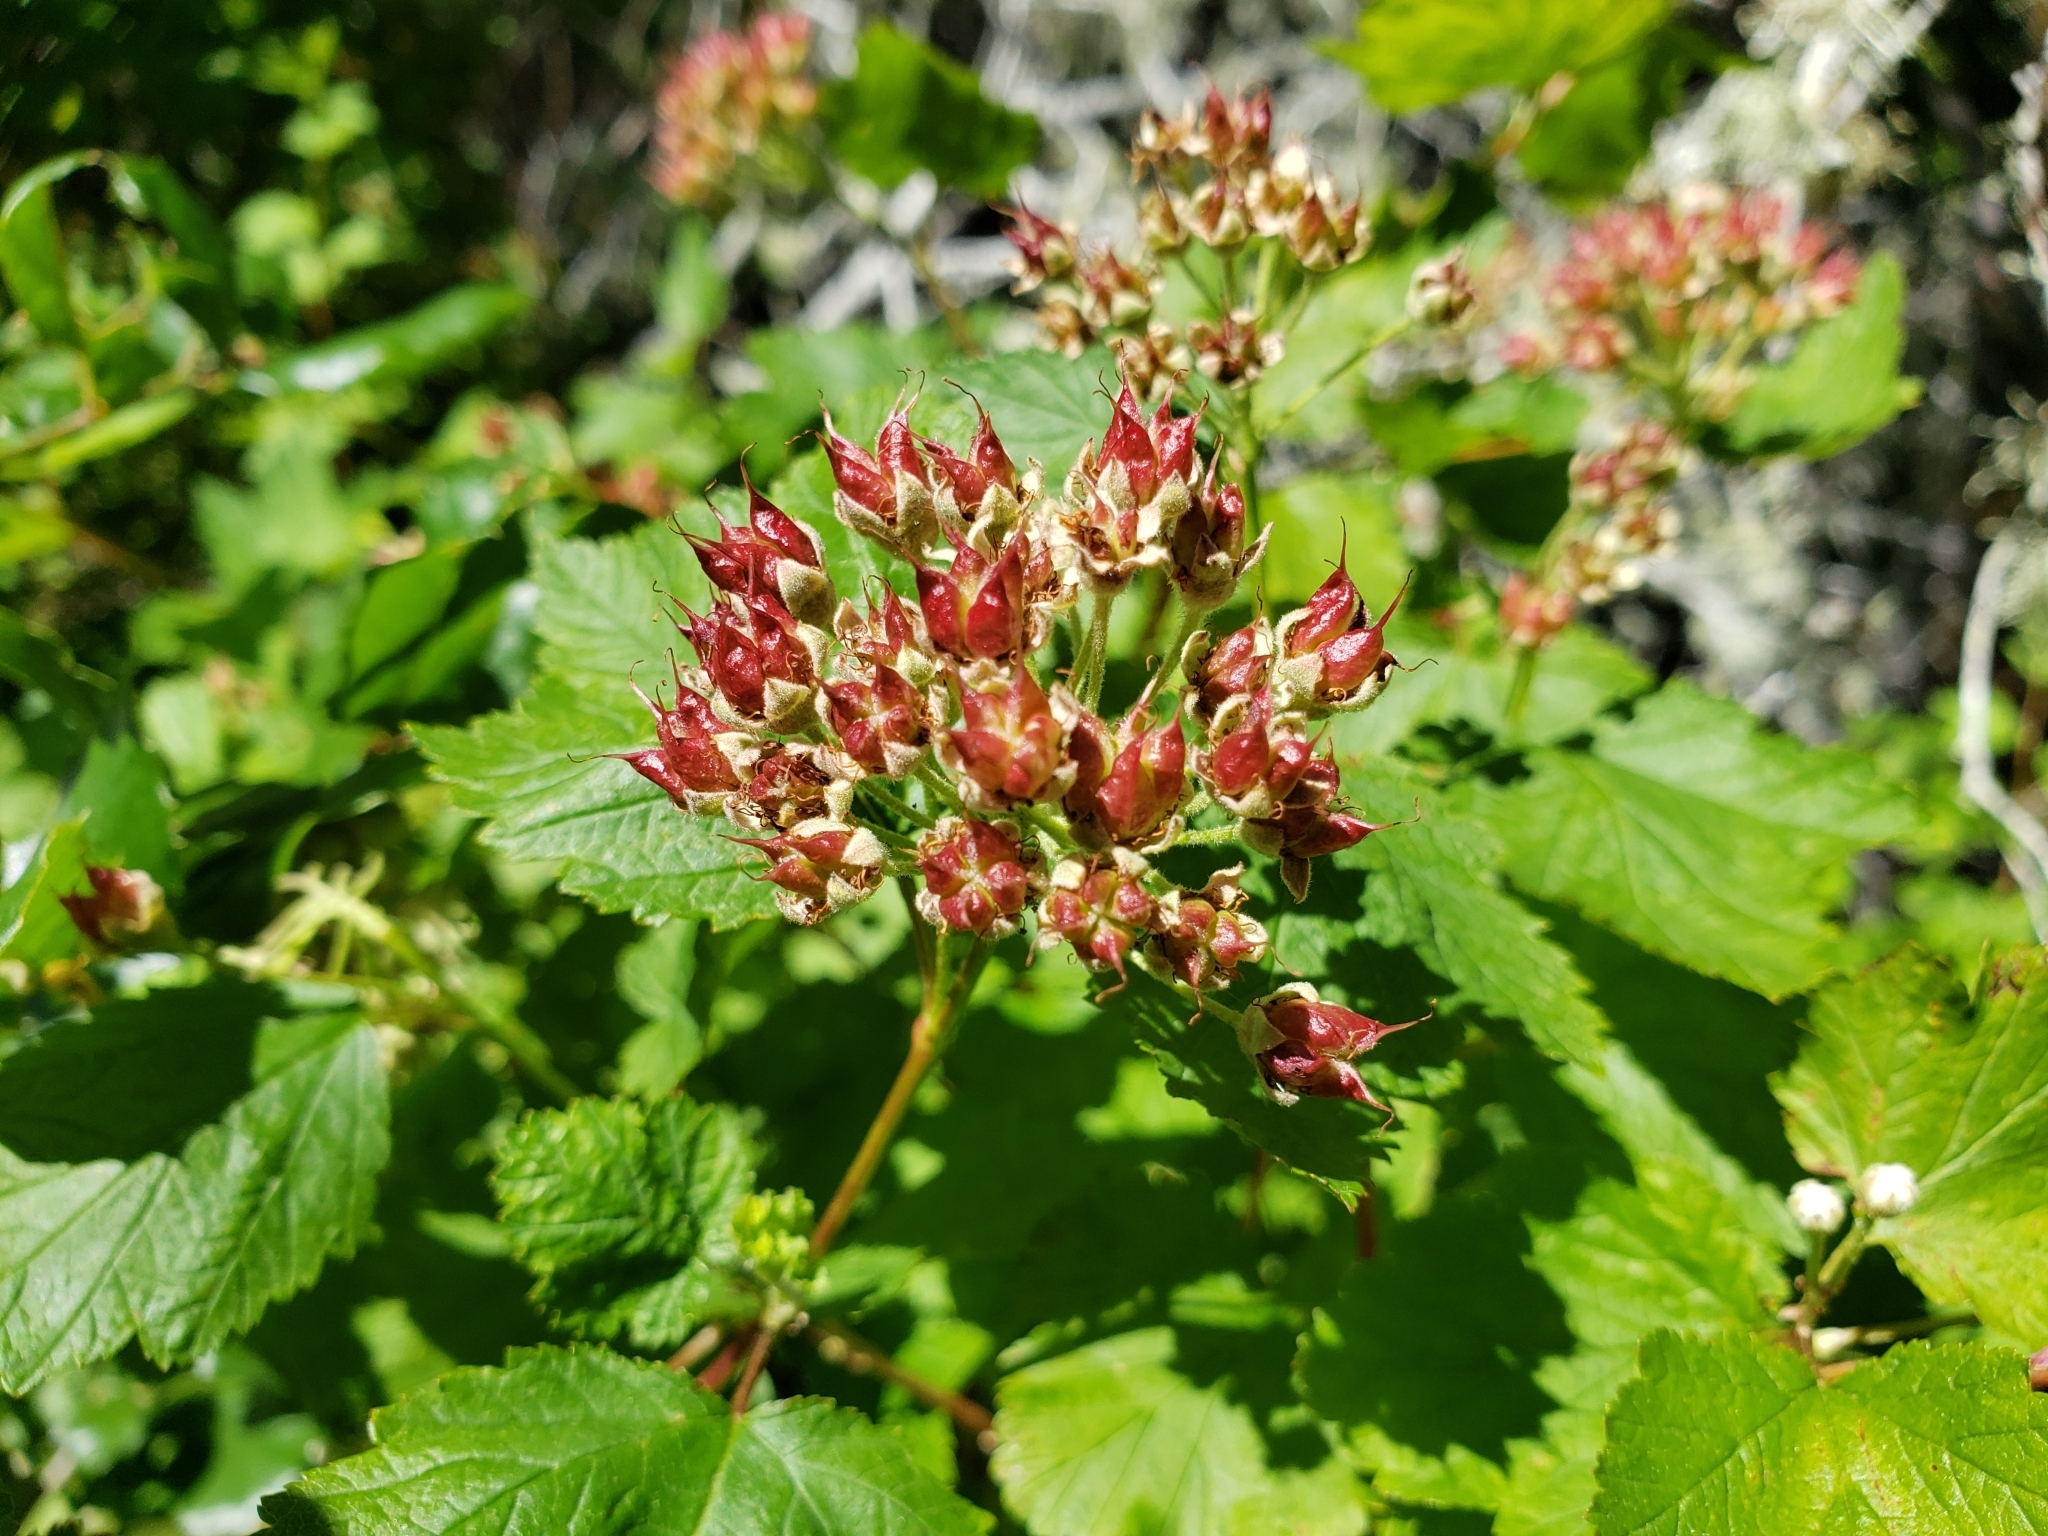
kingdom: Plantae
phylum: Tracheophyta
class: Magnoliopsida
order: Rosales
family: Rosaceae
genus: Physocarpus
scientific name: Physocarpus capitatus
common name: Pacific ninebark
